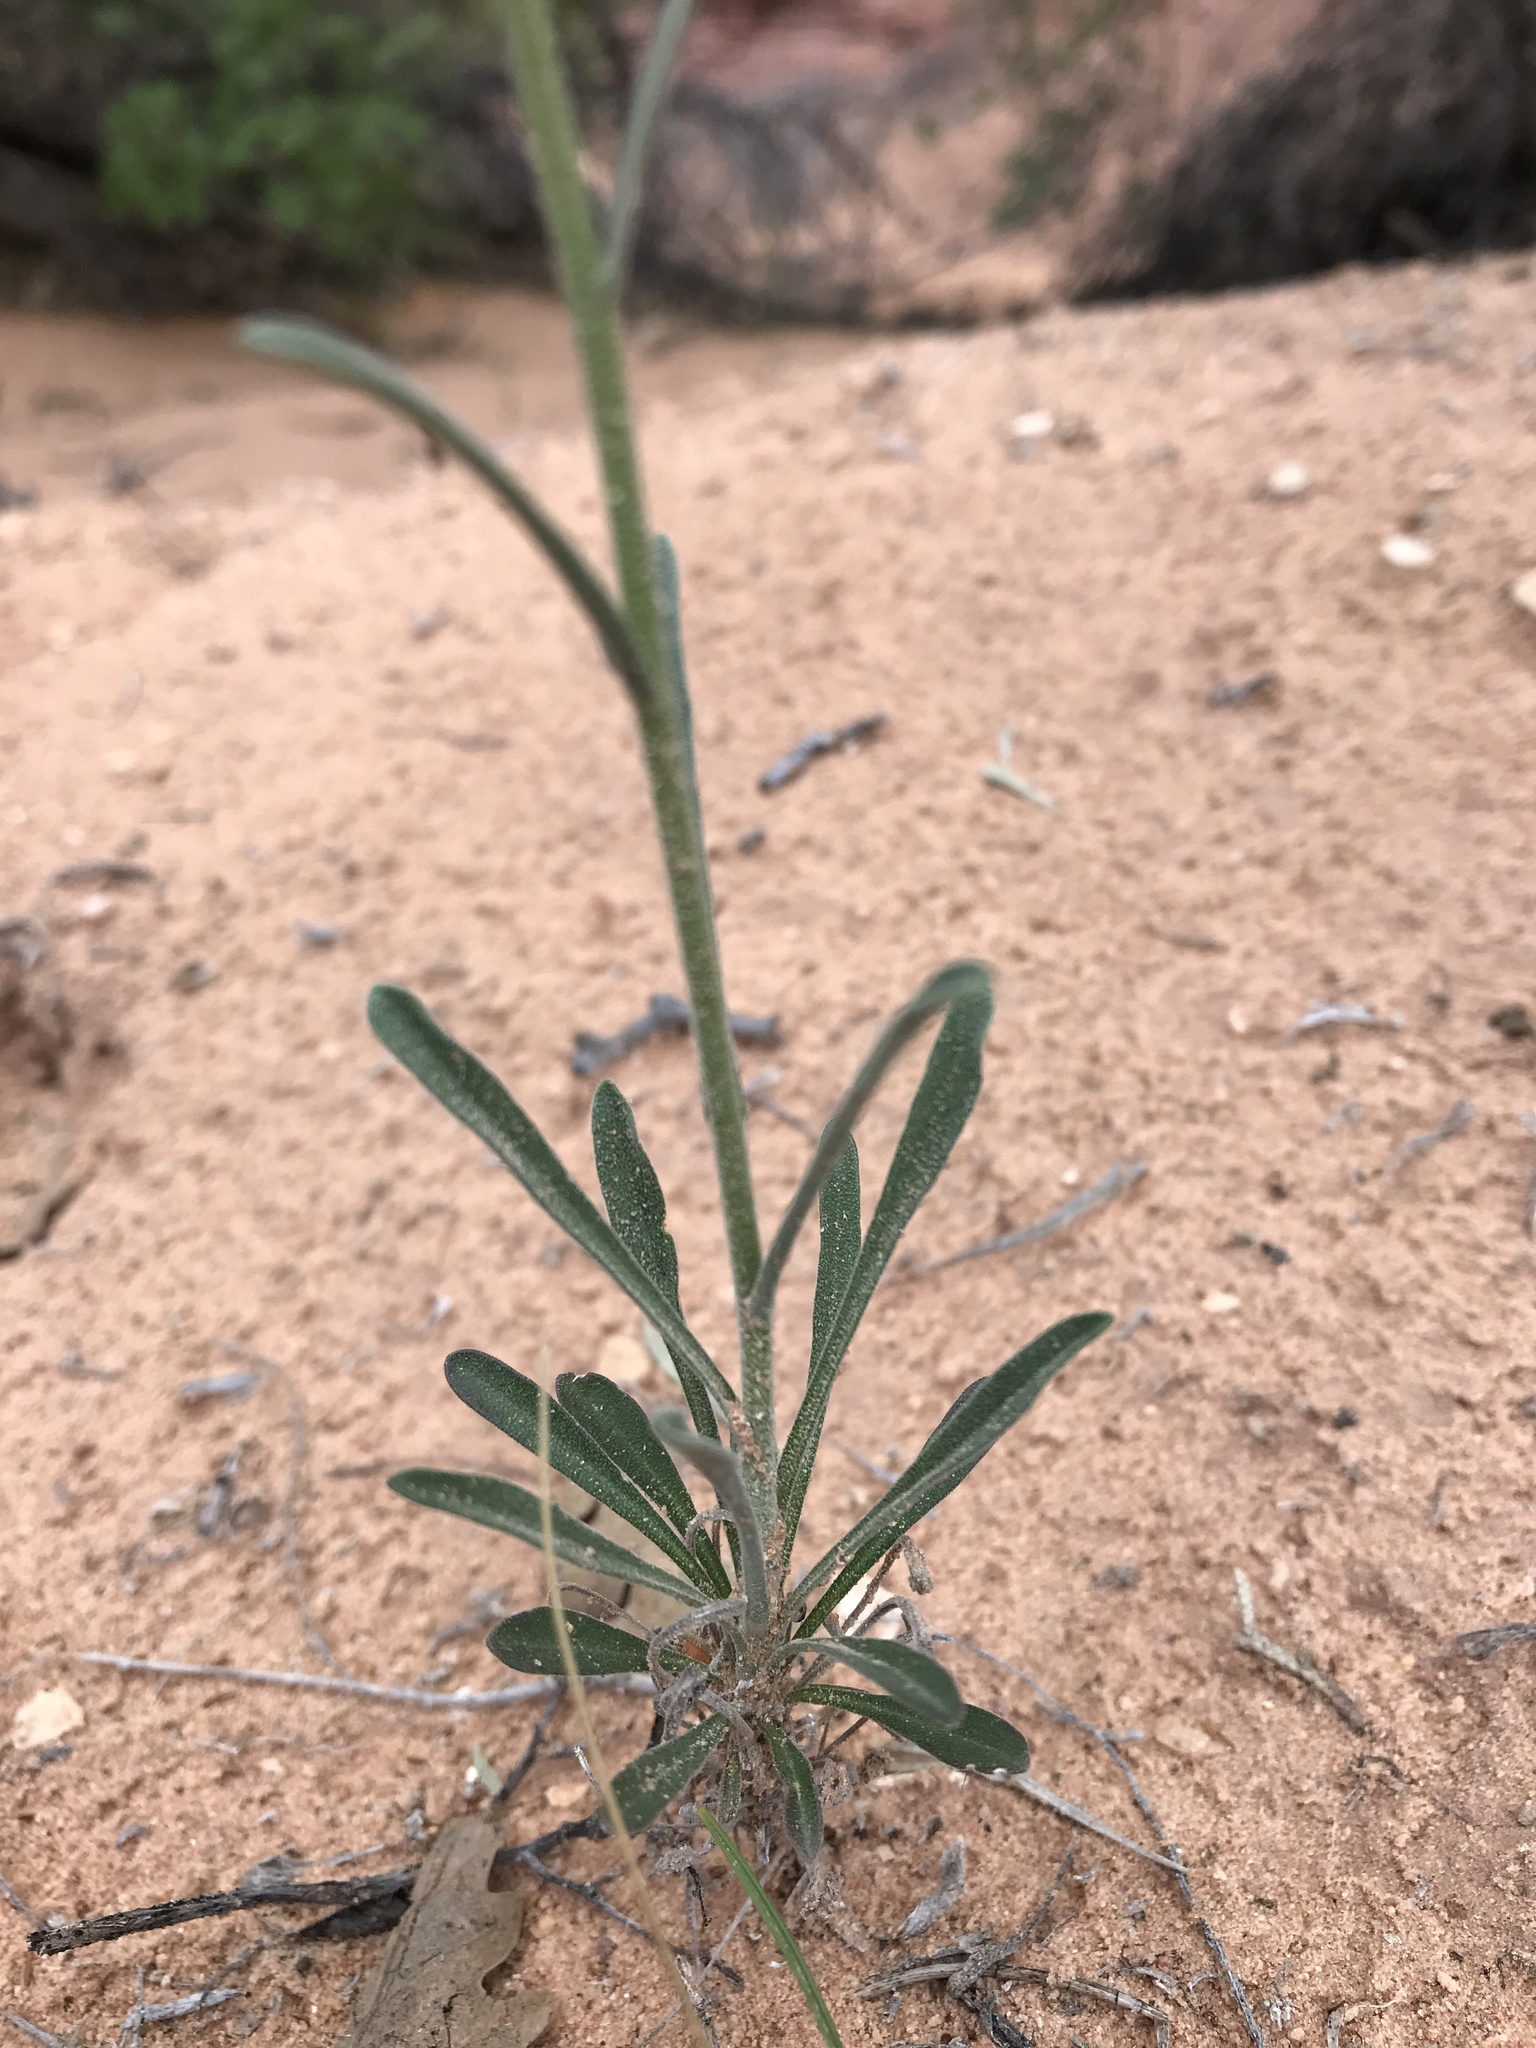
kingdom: Plantae
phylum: Tracheophyta
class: Magnoliopsida
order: Brassicales
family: Brassicaceae
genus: Boechera
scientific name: Boechera formosa
